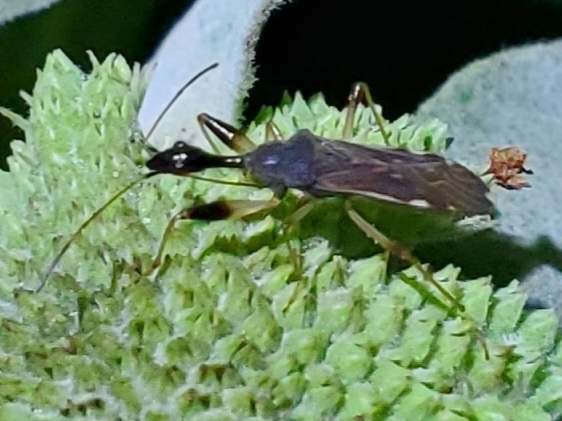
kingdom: Animalia
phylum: Arthropoda
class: Insecta
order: Hemiptera
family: Rhyparochromidae
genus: Myodocha
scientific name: Myodocha serripes
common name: Long-necked seed bug
